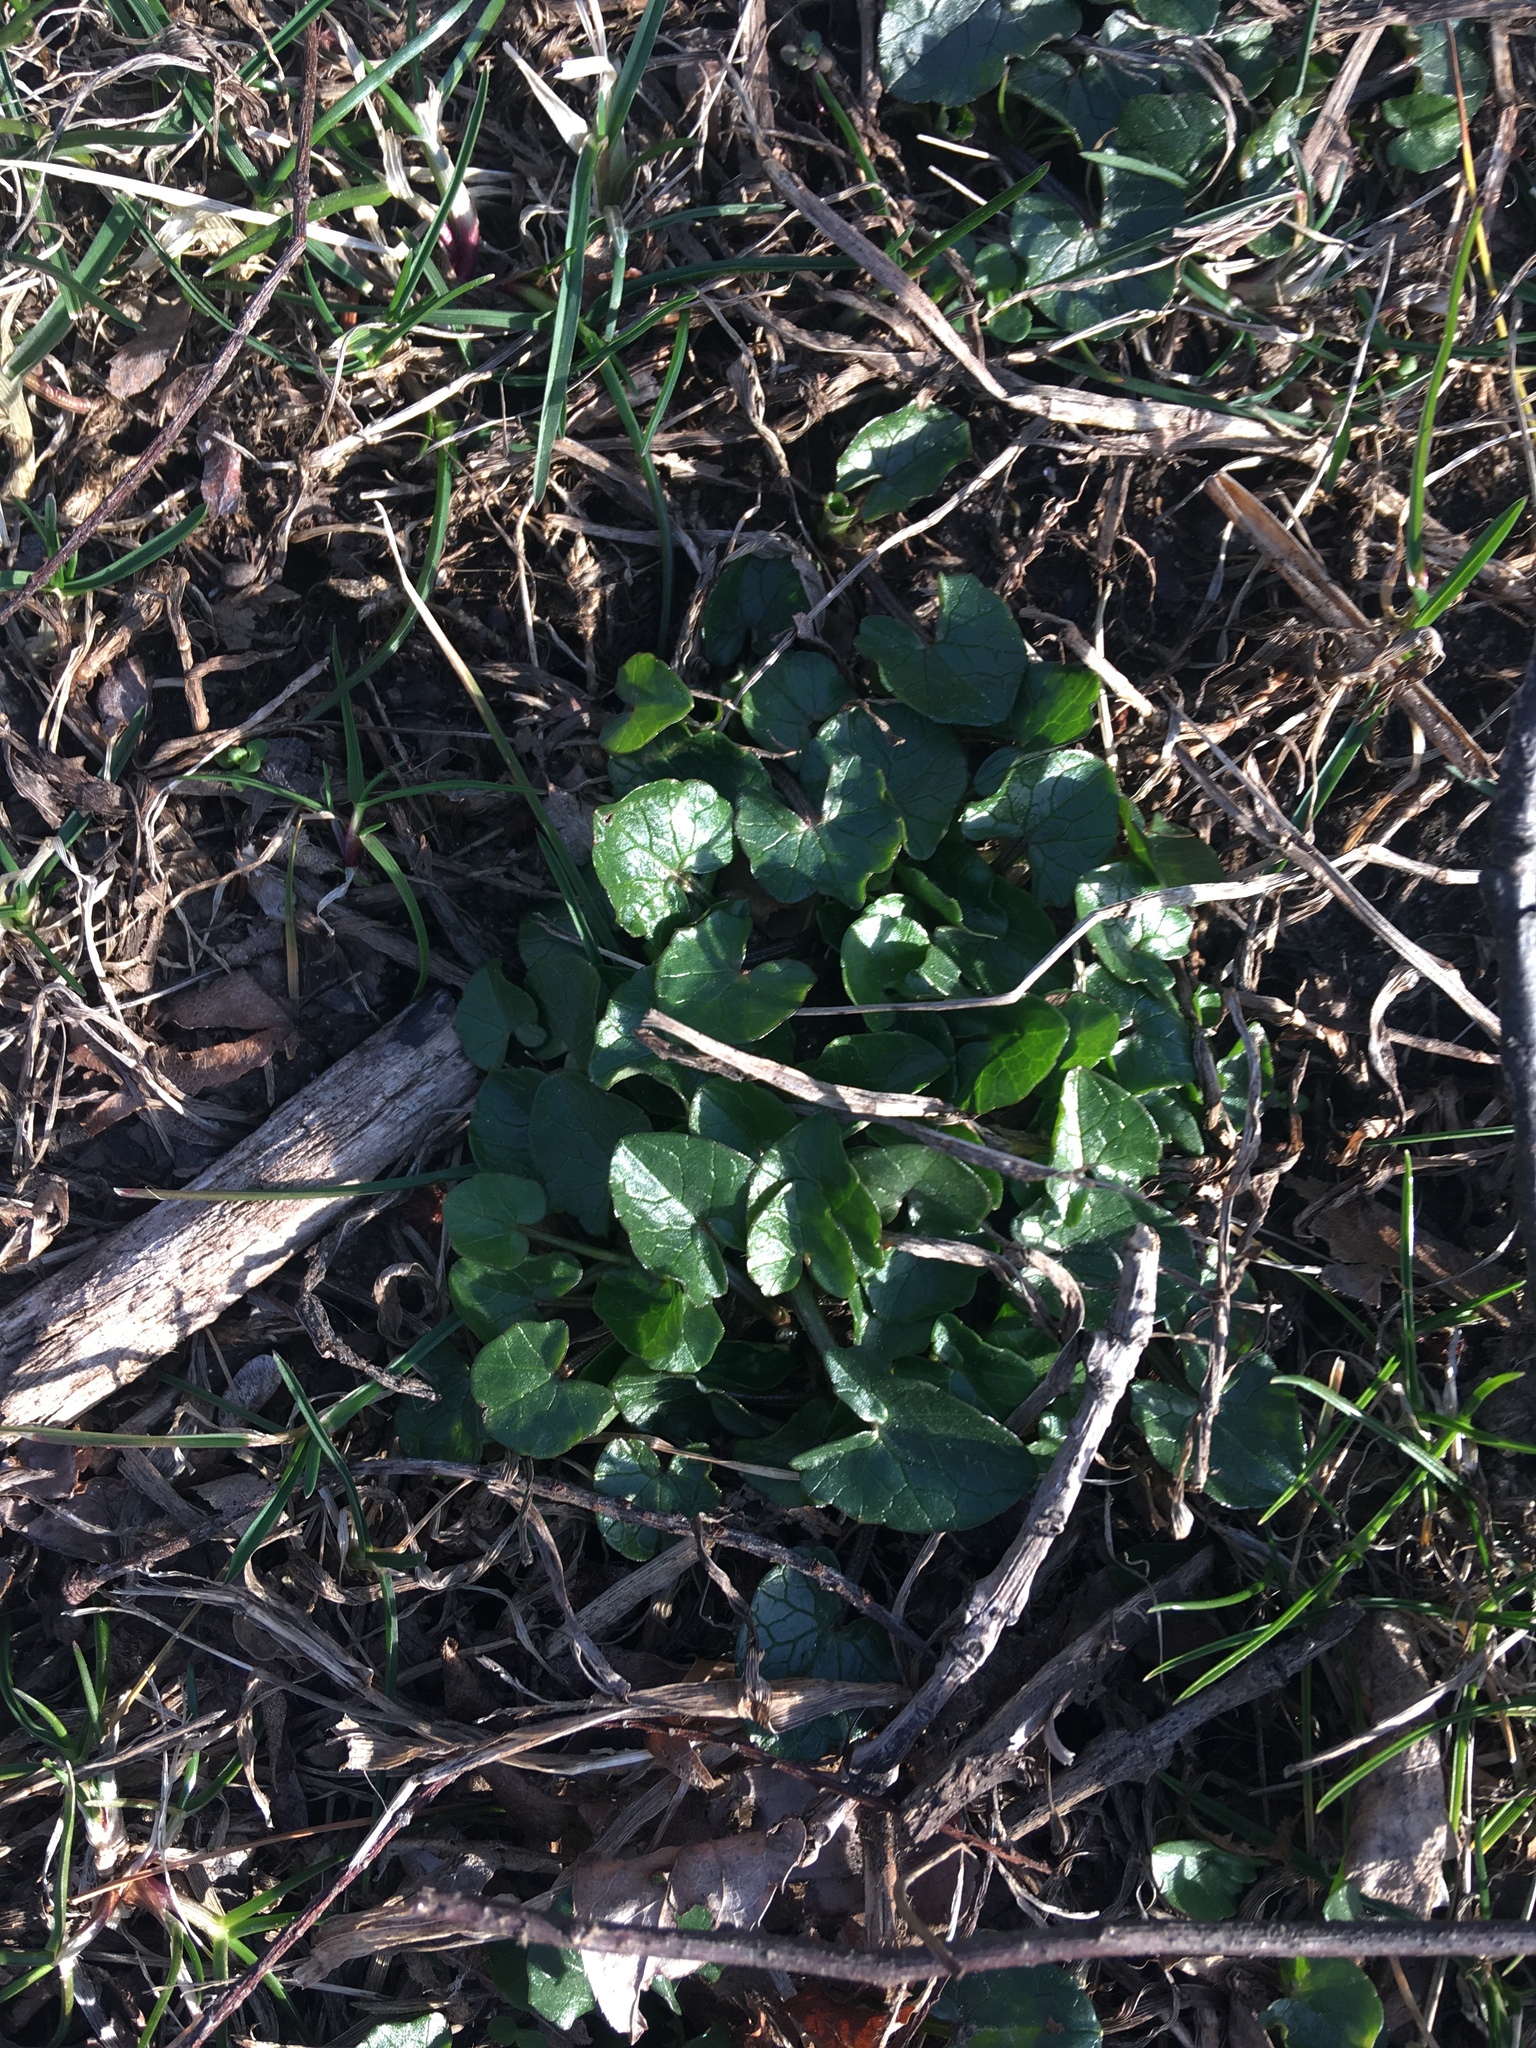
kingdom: Plantae
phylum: Tracheophyta
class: Magnoliopsida
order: Ranunculales
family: Ranunculaceae
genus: Ficaria
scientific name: Ficaria verna
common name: Lesser celandine
